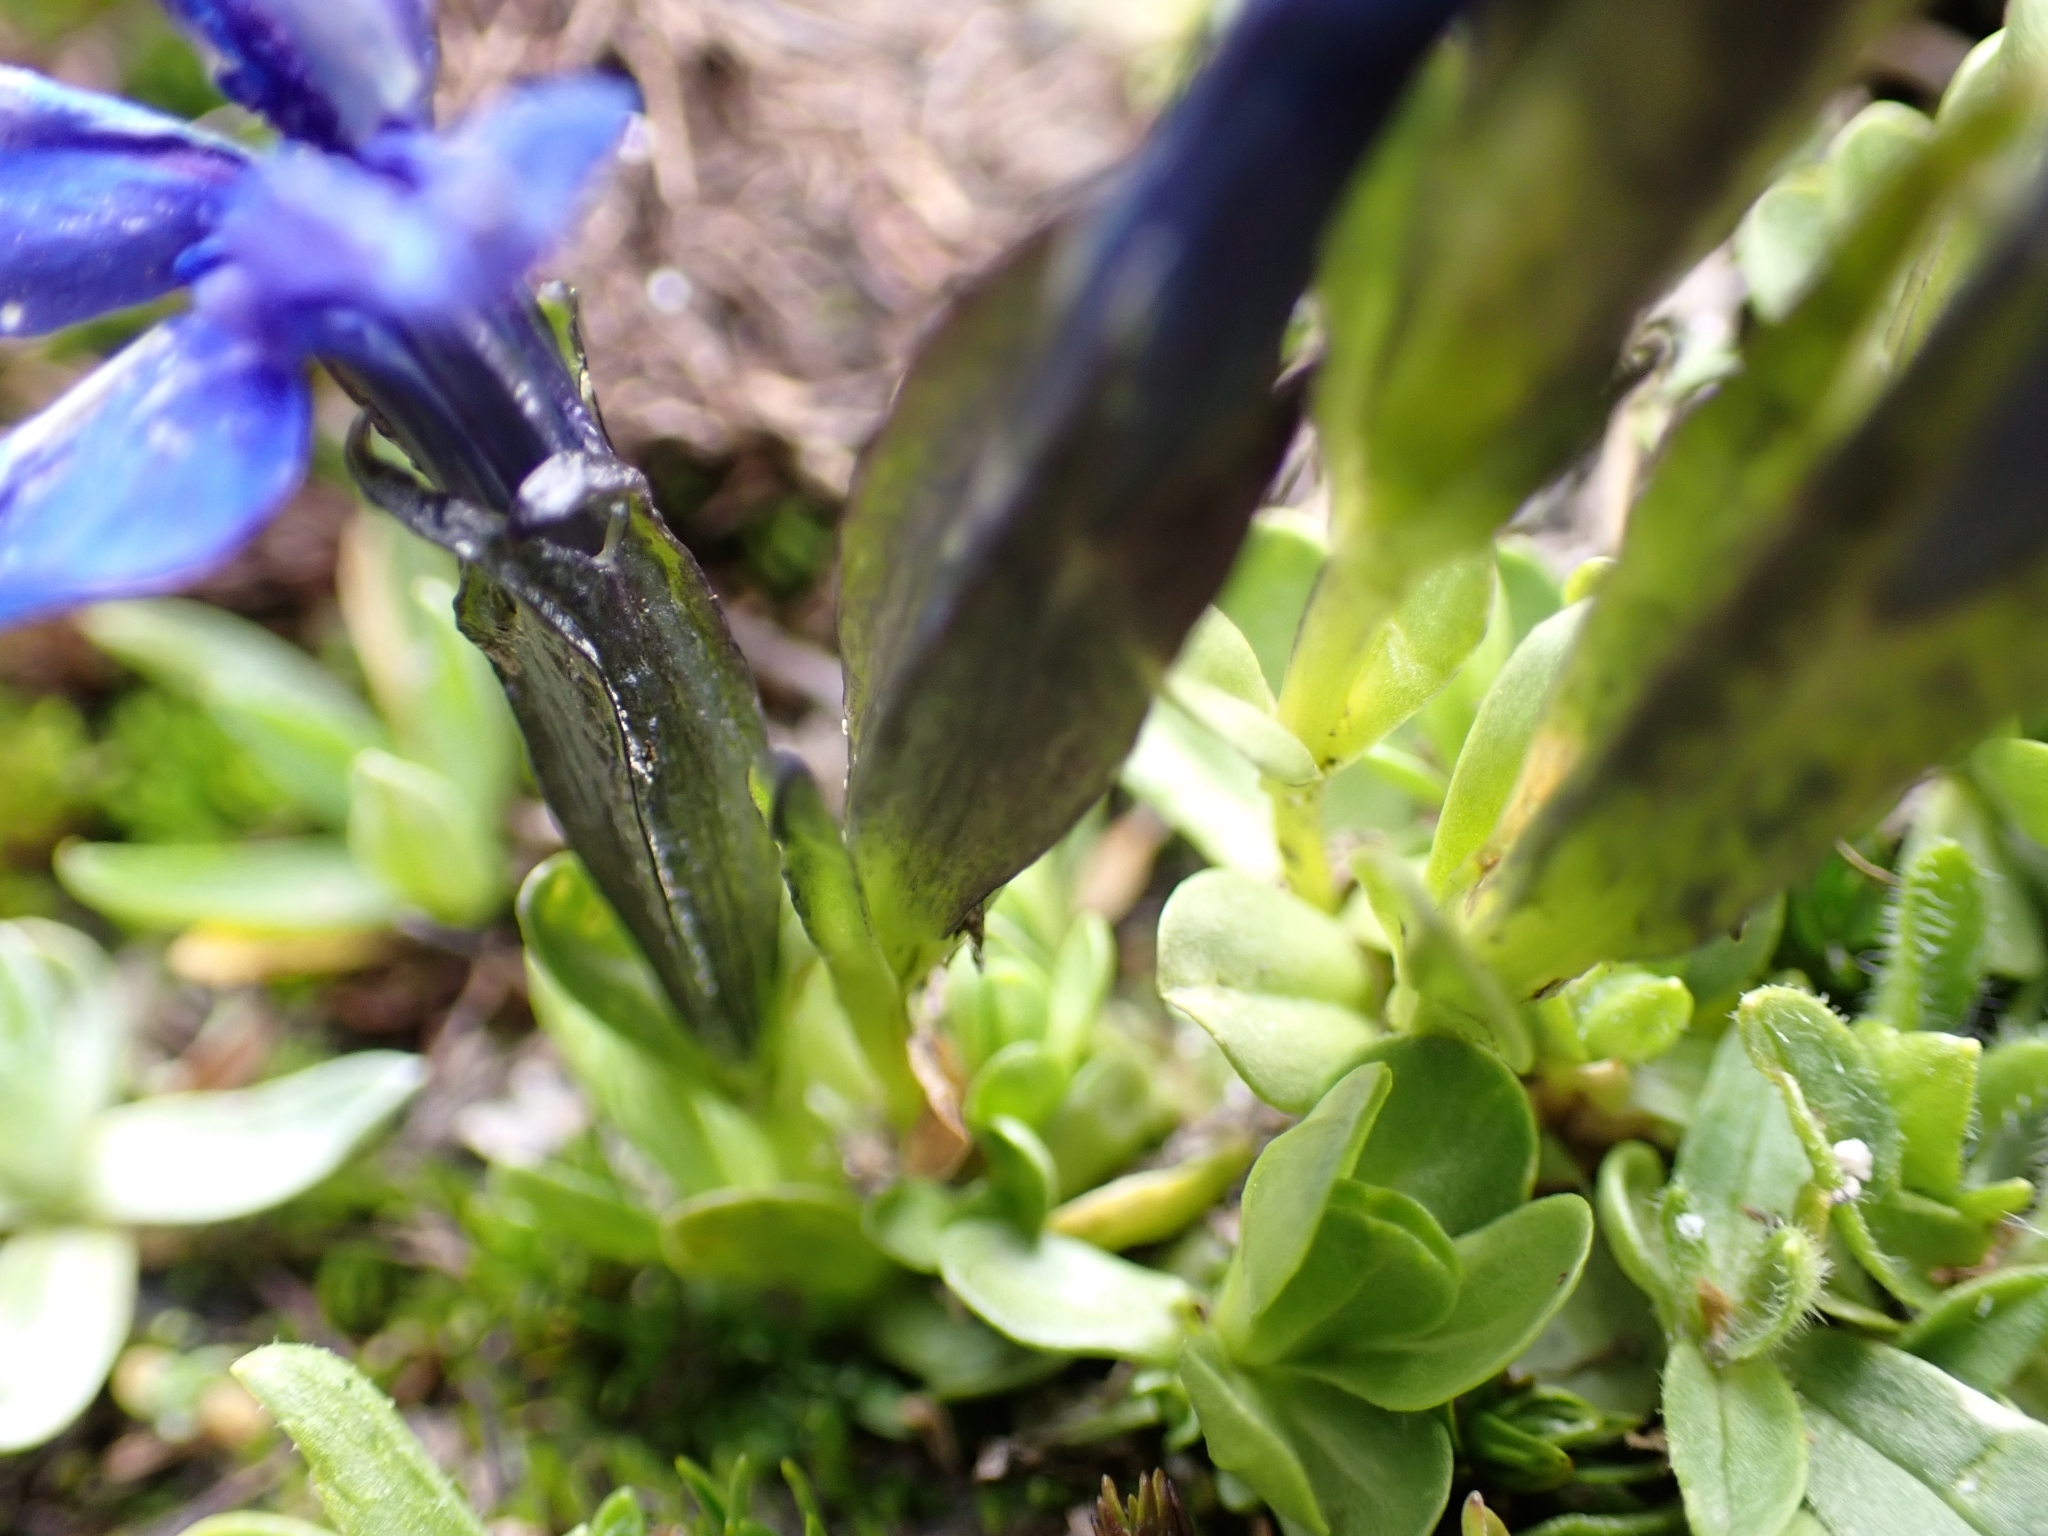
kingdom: Plantae
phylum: Tracheophyta
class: Magnoliopsida
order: Gentianales
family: Gentianaceae
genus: Gentiana
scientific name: Gentiana bavarica
